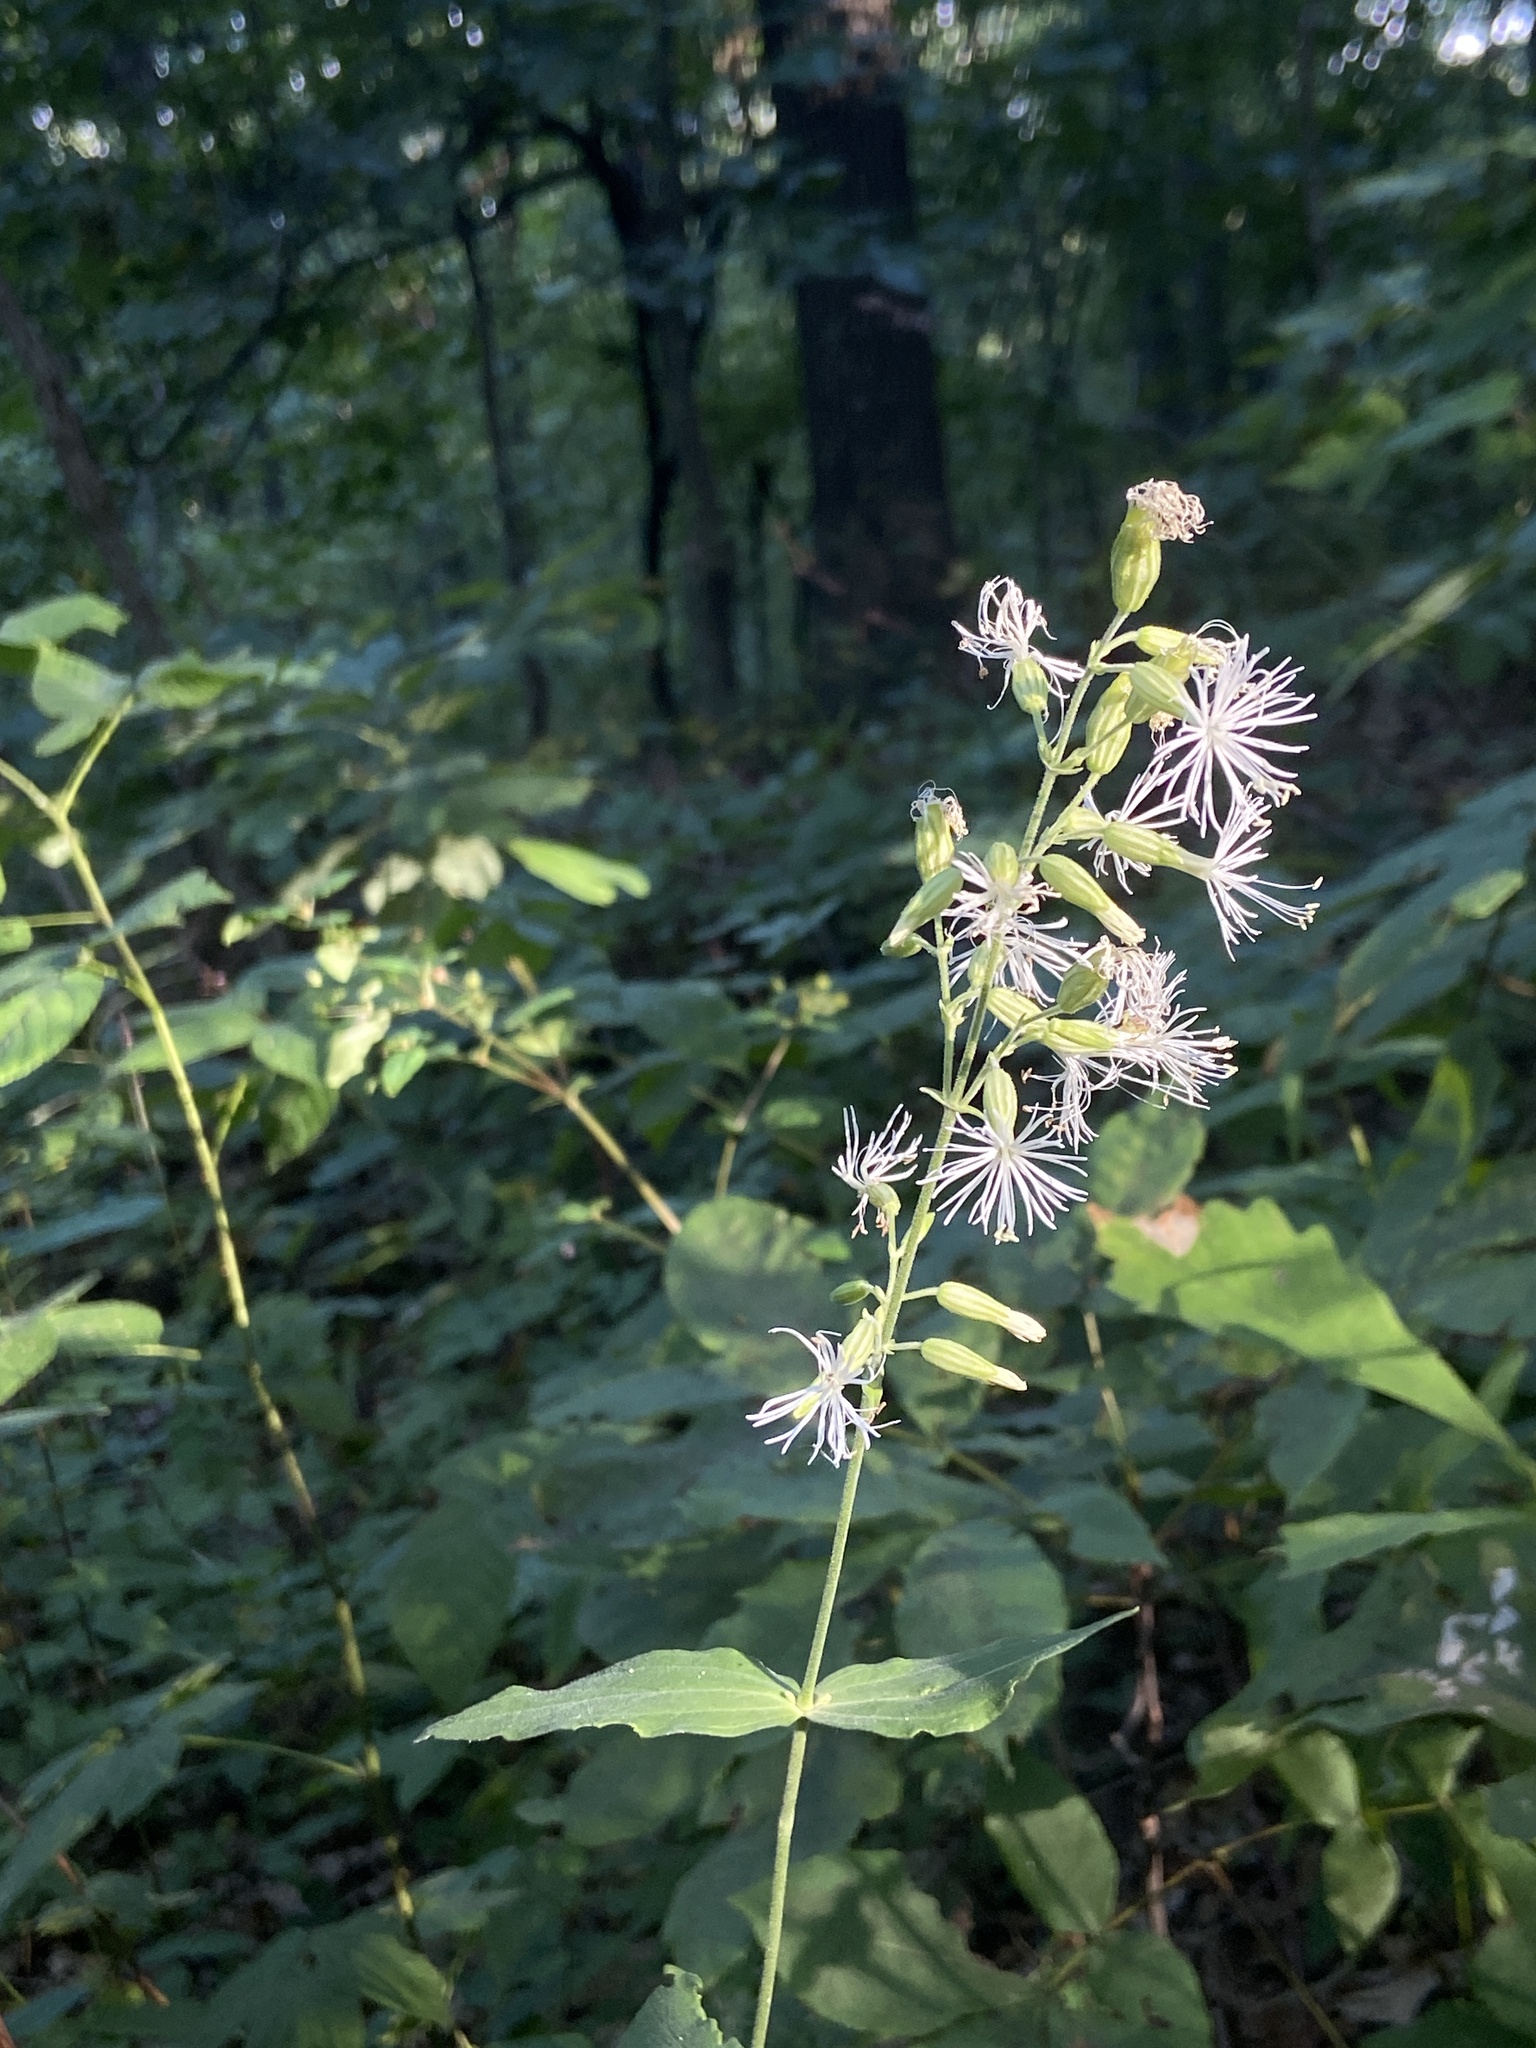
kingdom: Plantae
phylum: Tracheophyta
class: Magnoliopsida
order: Caryophyllales
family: Caryophyllaceae
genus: Silene
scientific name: Silene ovata
